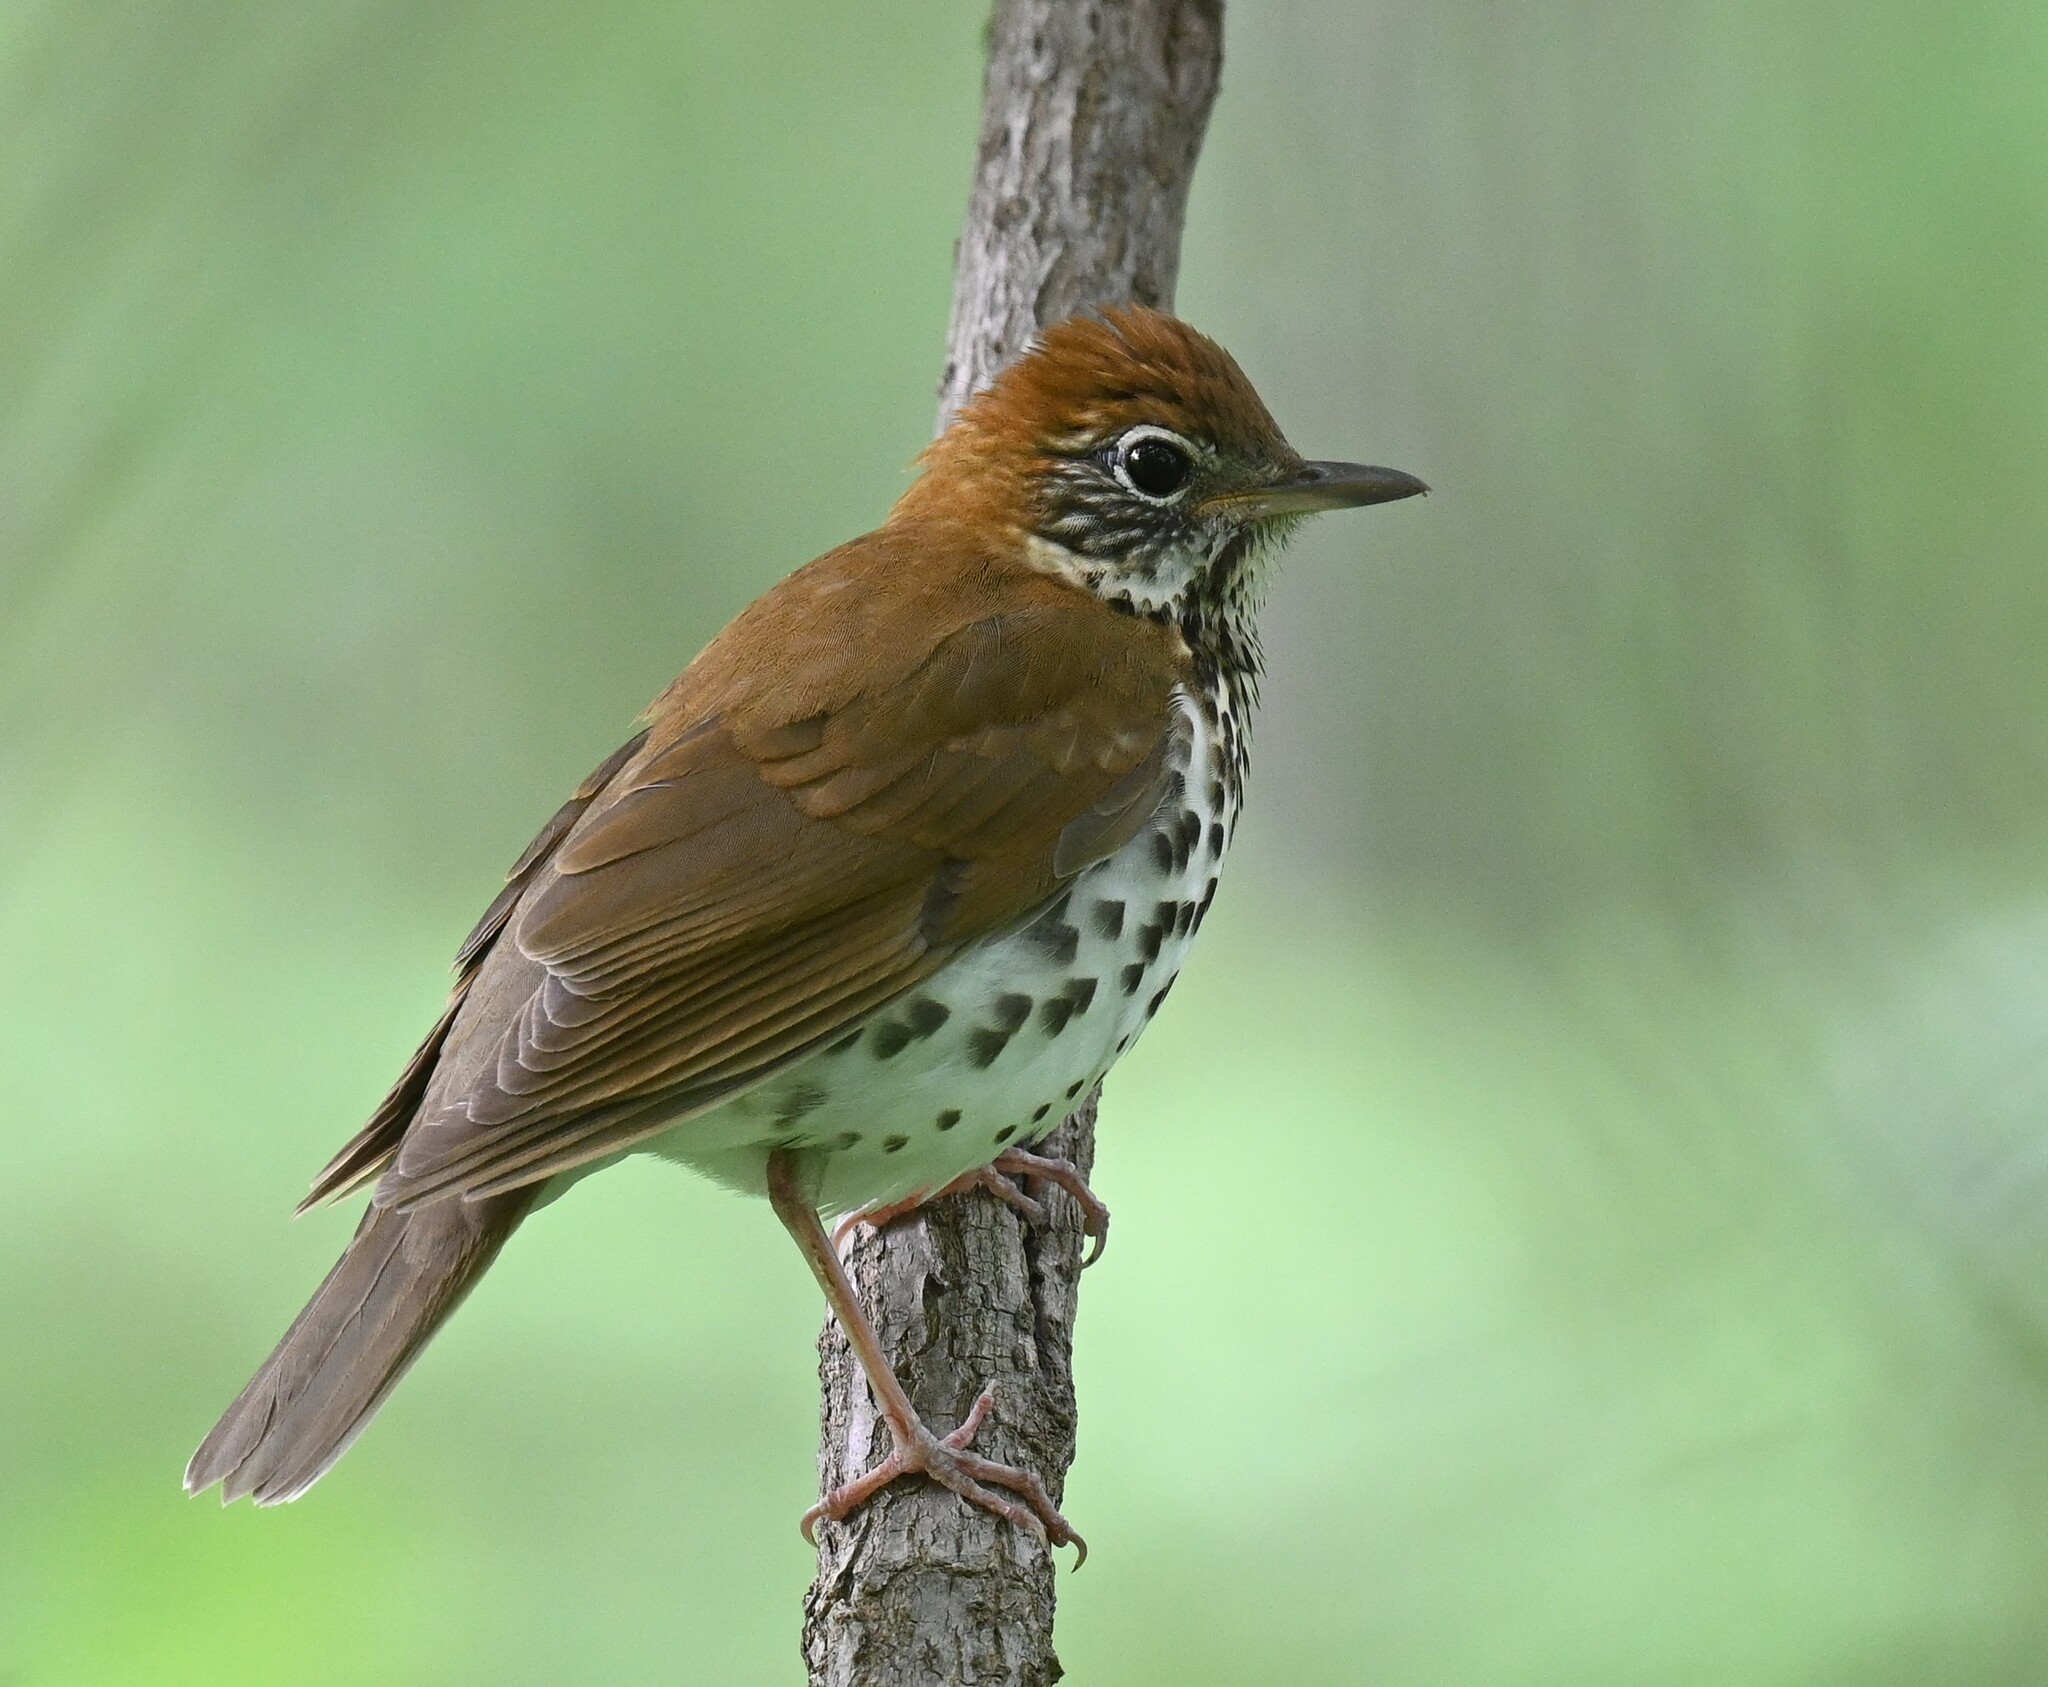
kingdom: Animalia
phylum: Chordata
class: Aves
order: Passeriformes
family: Turdidae
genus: Hylocichla
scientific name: Hylocichla mustelina
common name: Wood thrush
